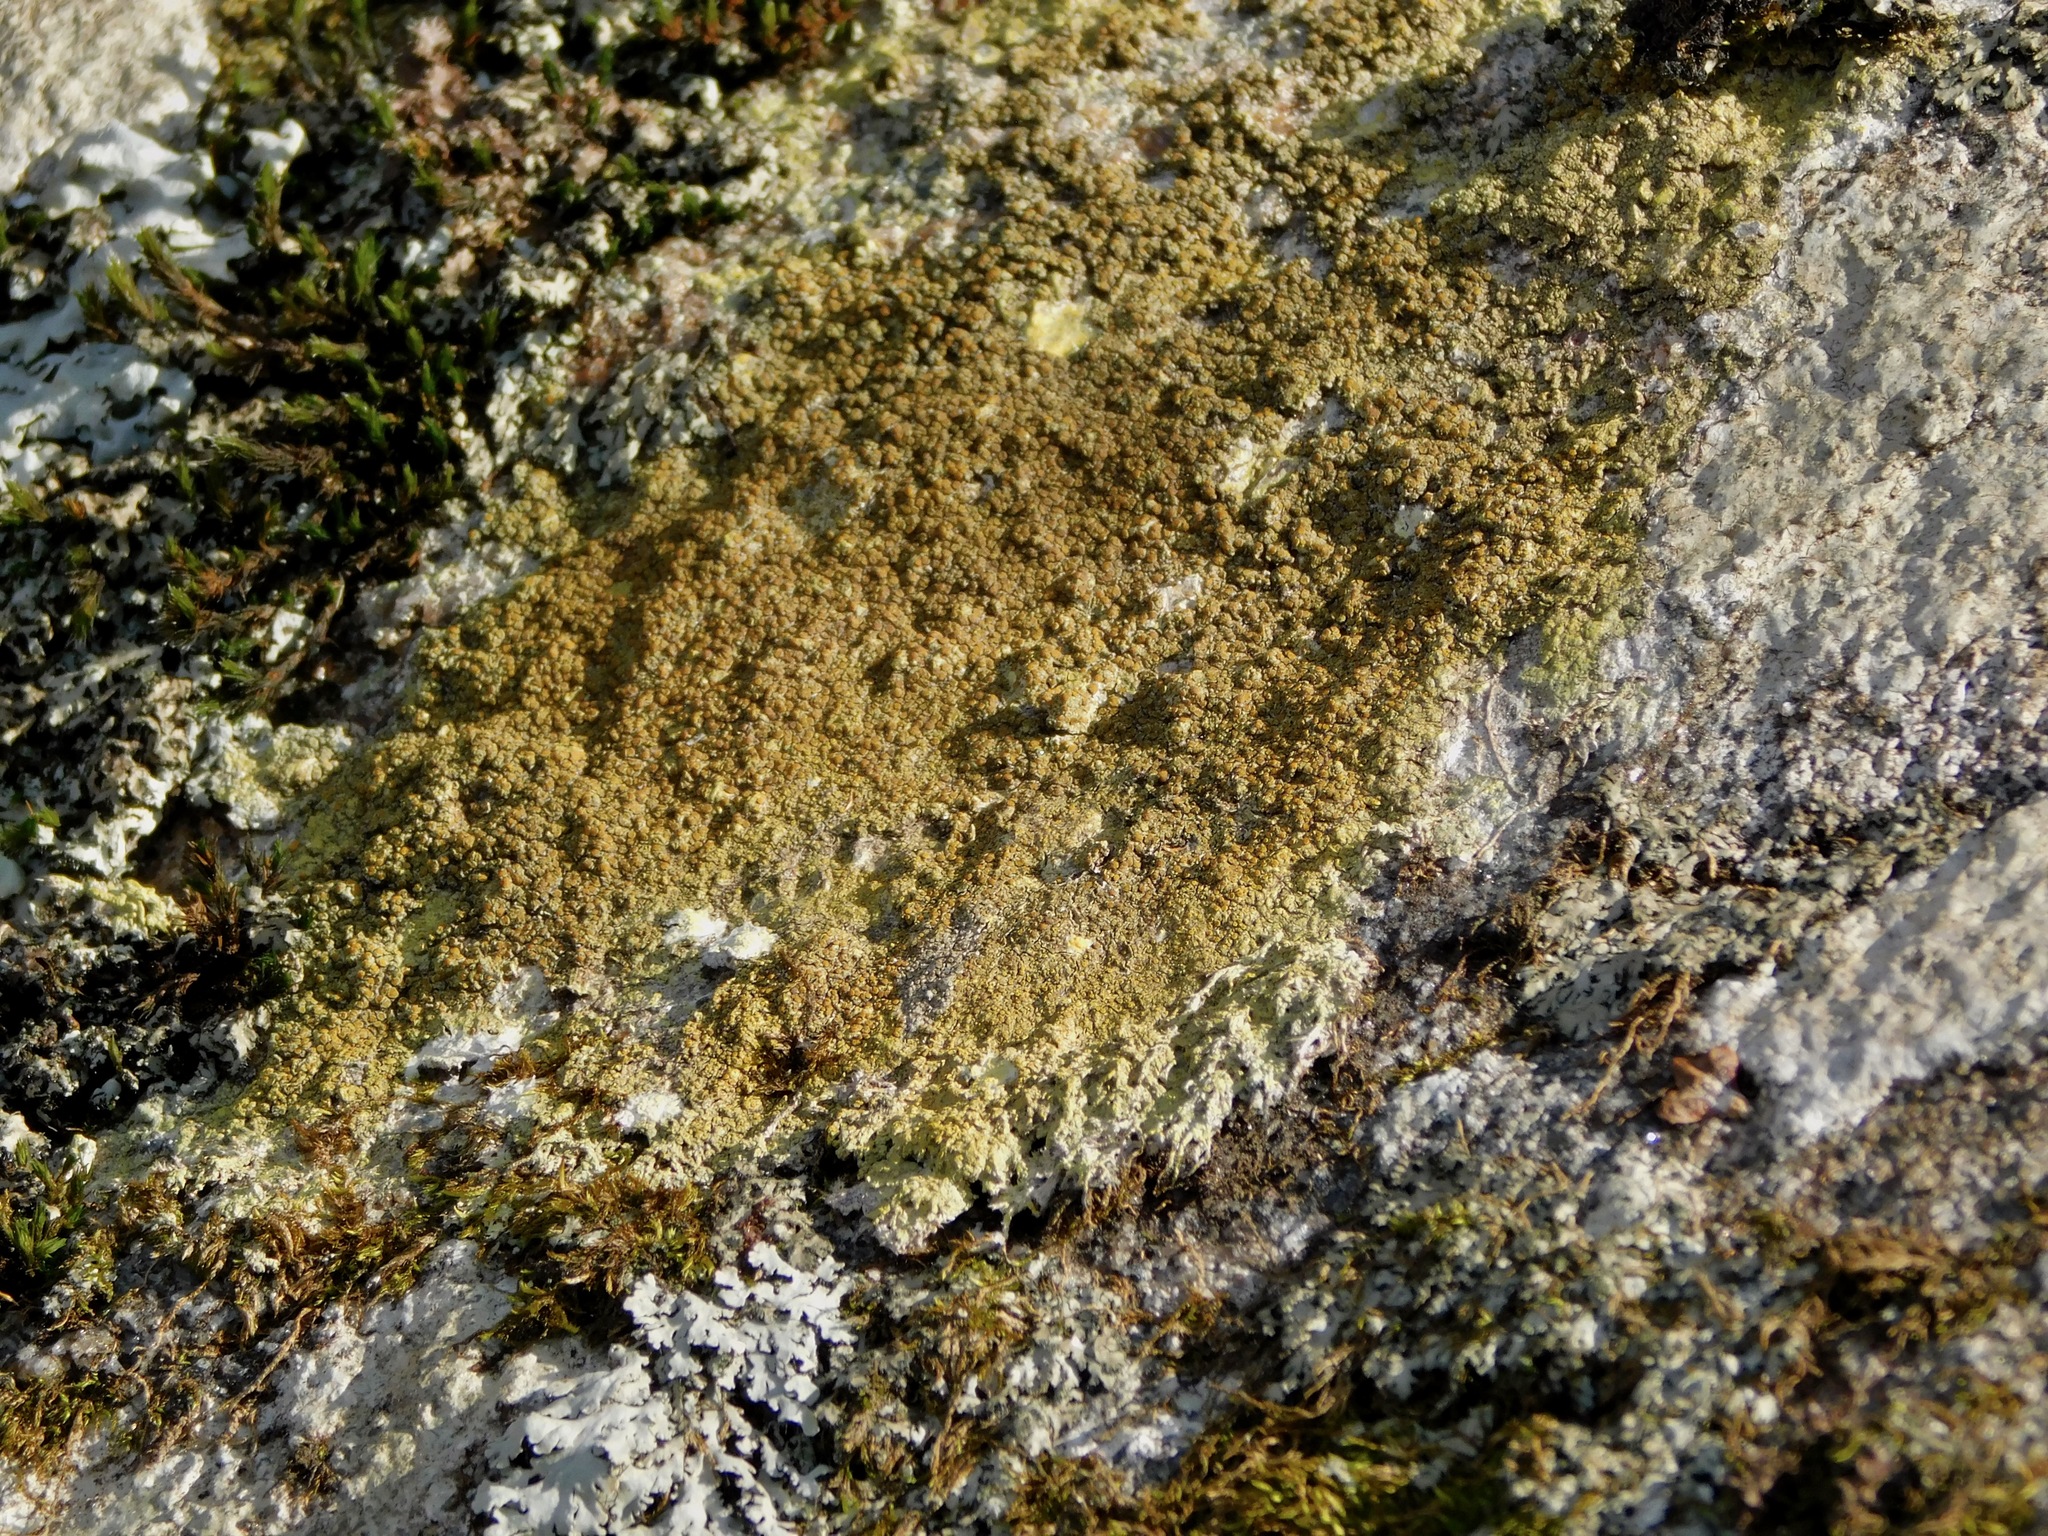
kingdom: Fungi
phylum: Ascomycota
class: Lecanoromycetes
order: Teloschistales
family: Teloschistaceae
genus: Gyalolechia
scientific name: Gyalolechia flavovirescens
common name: Sulphur firedot
